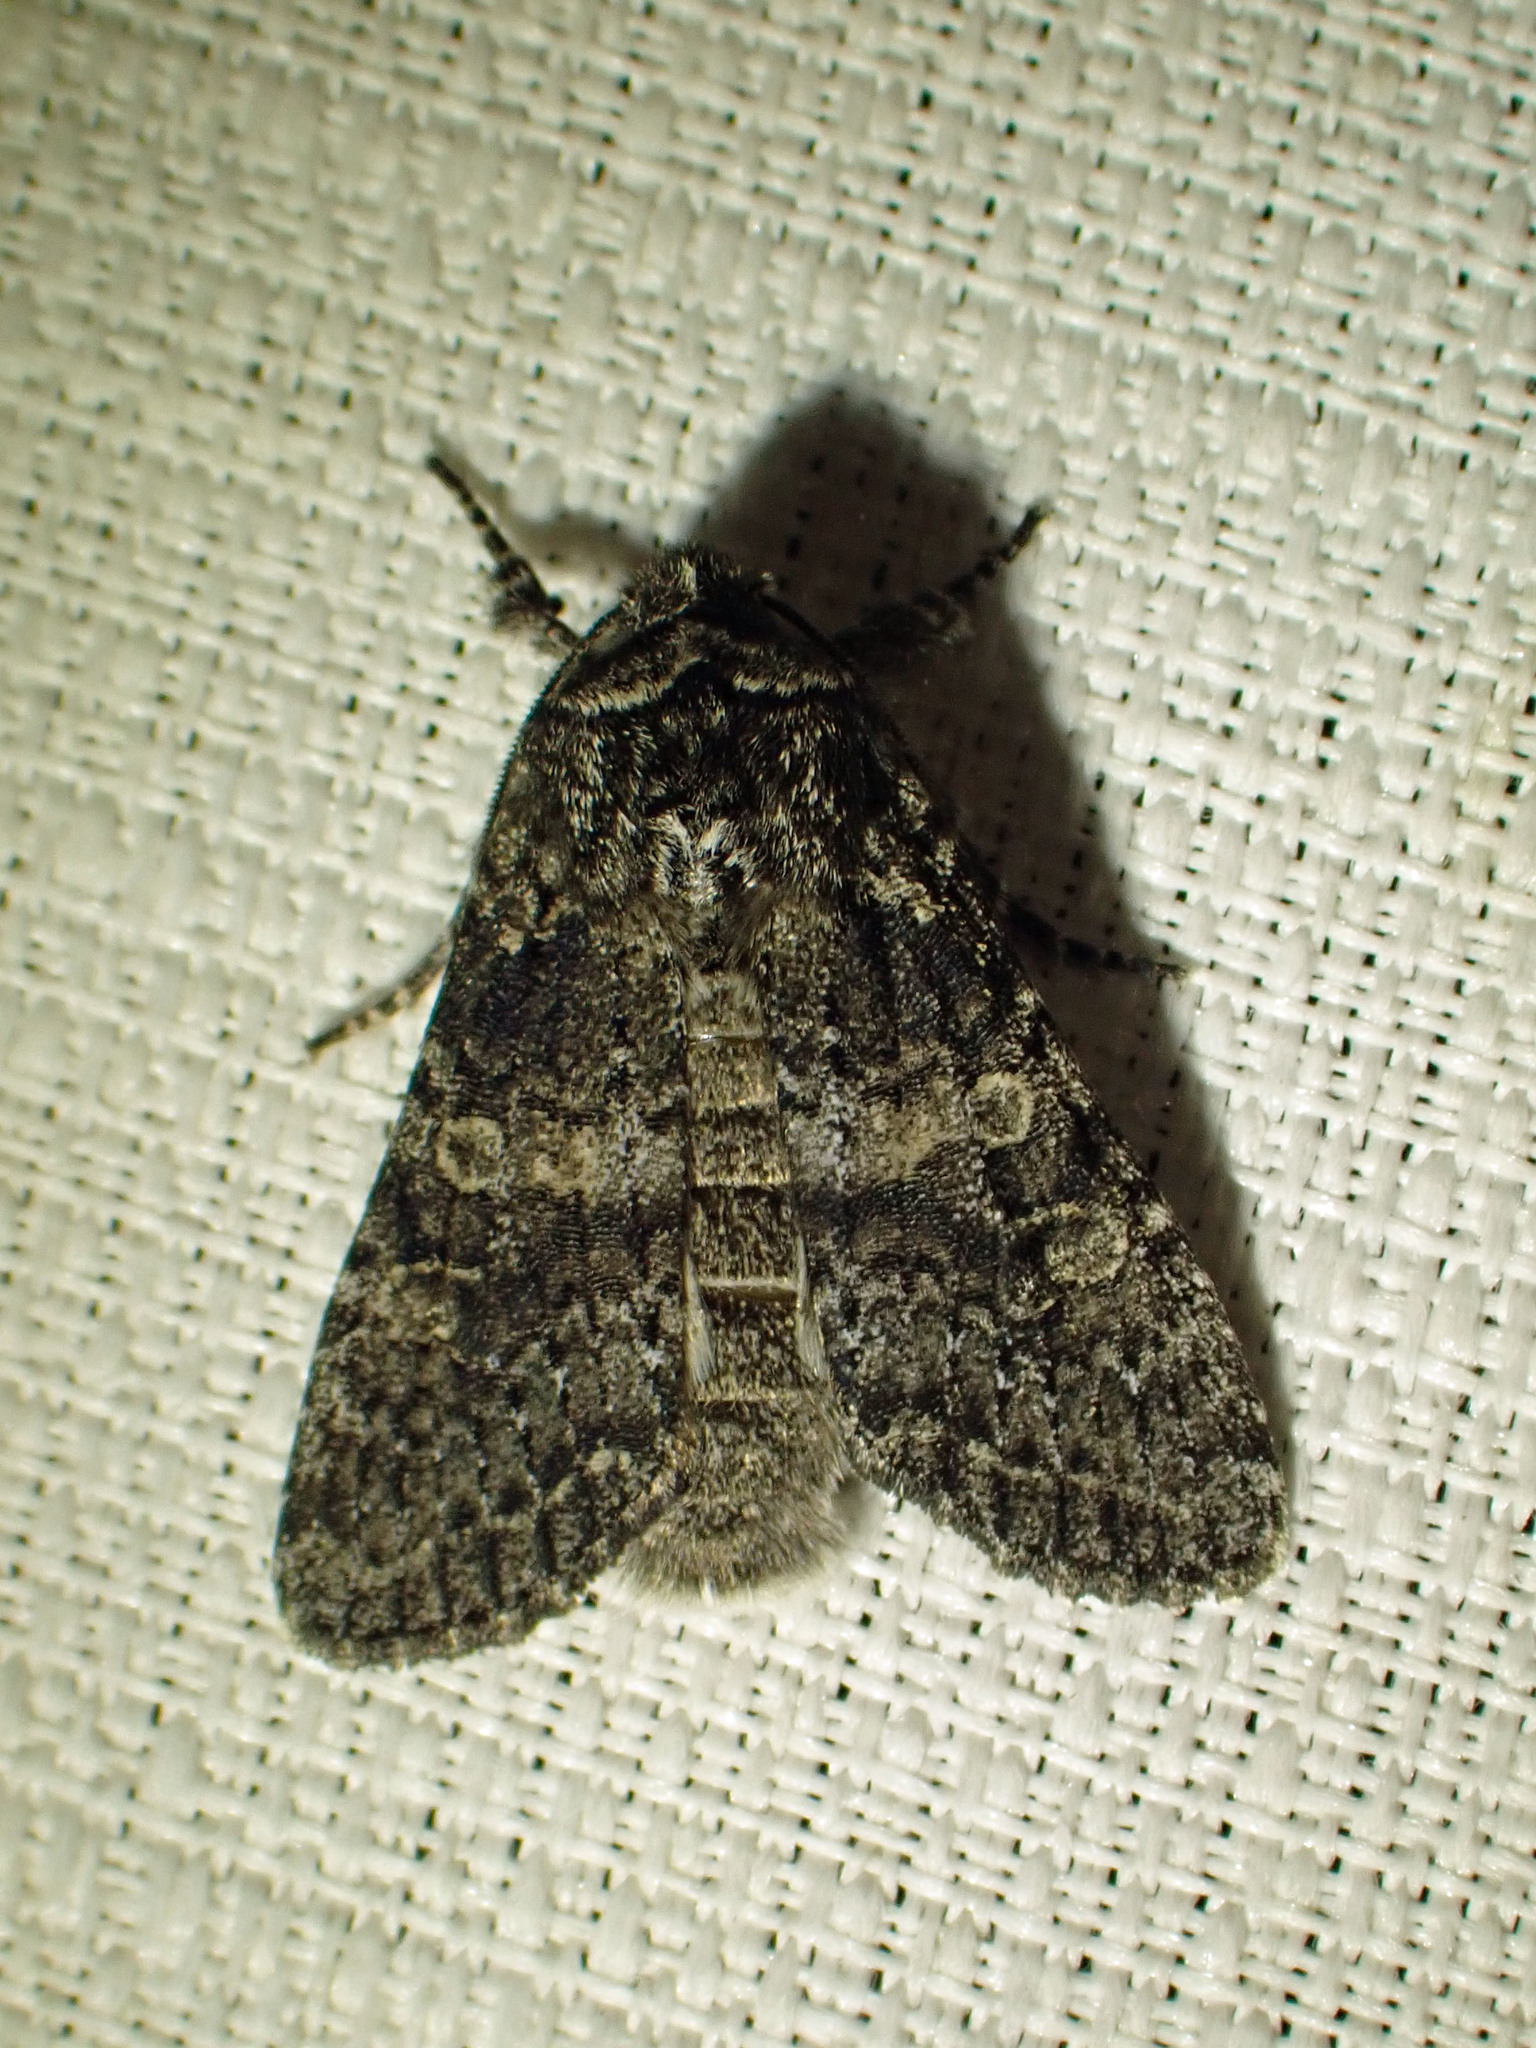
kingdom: Animalia
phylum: Arthropoda
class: Insecta
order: Lepidoptera
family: Noctuidae
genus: Egira
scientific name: Egira dolosa
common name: Lined black aspen cat.
